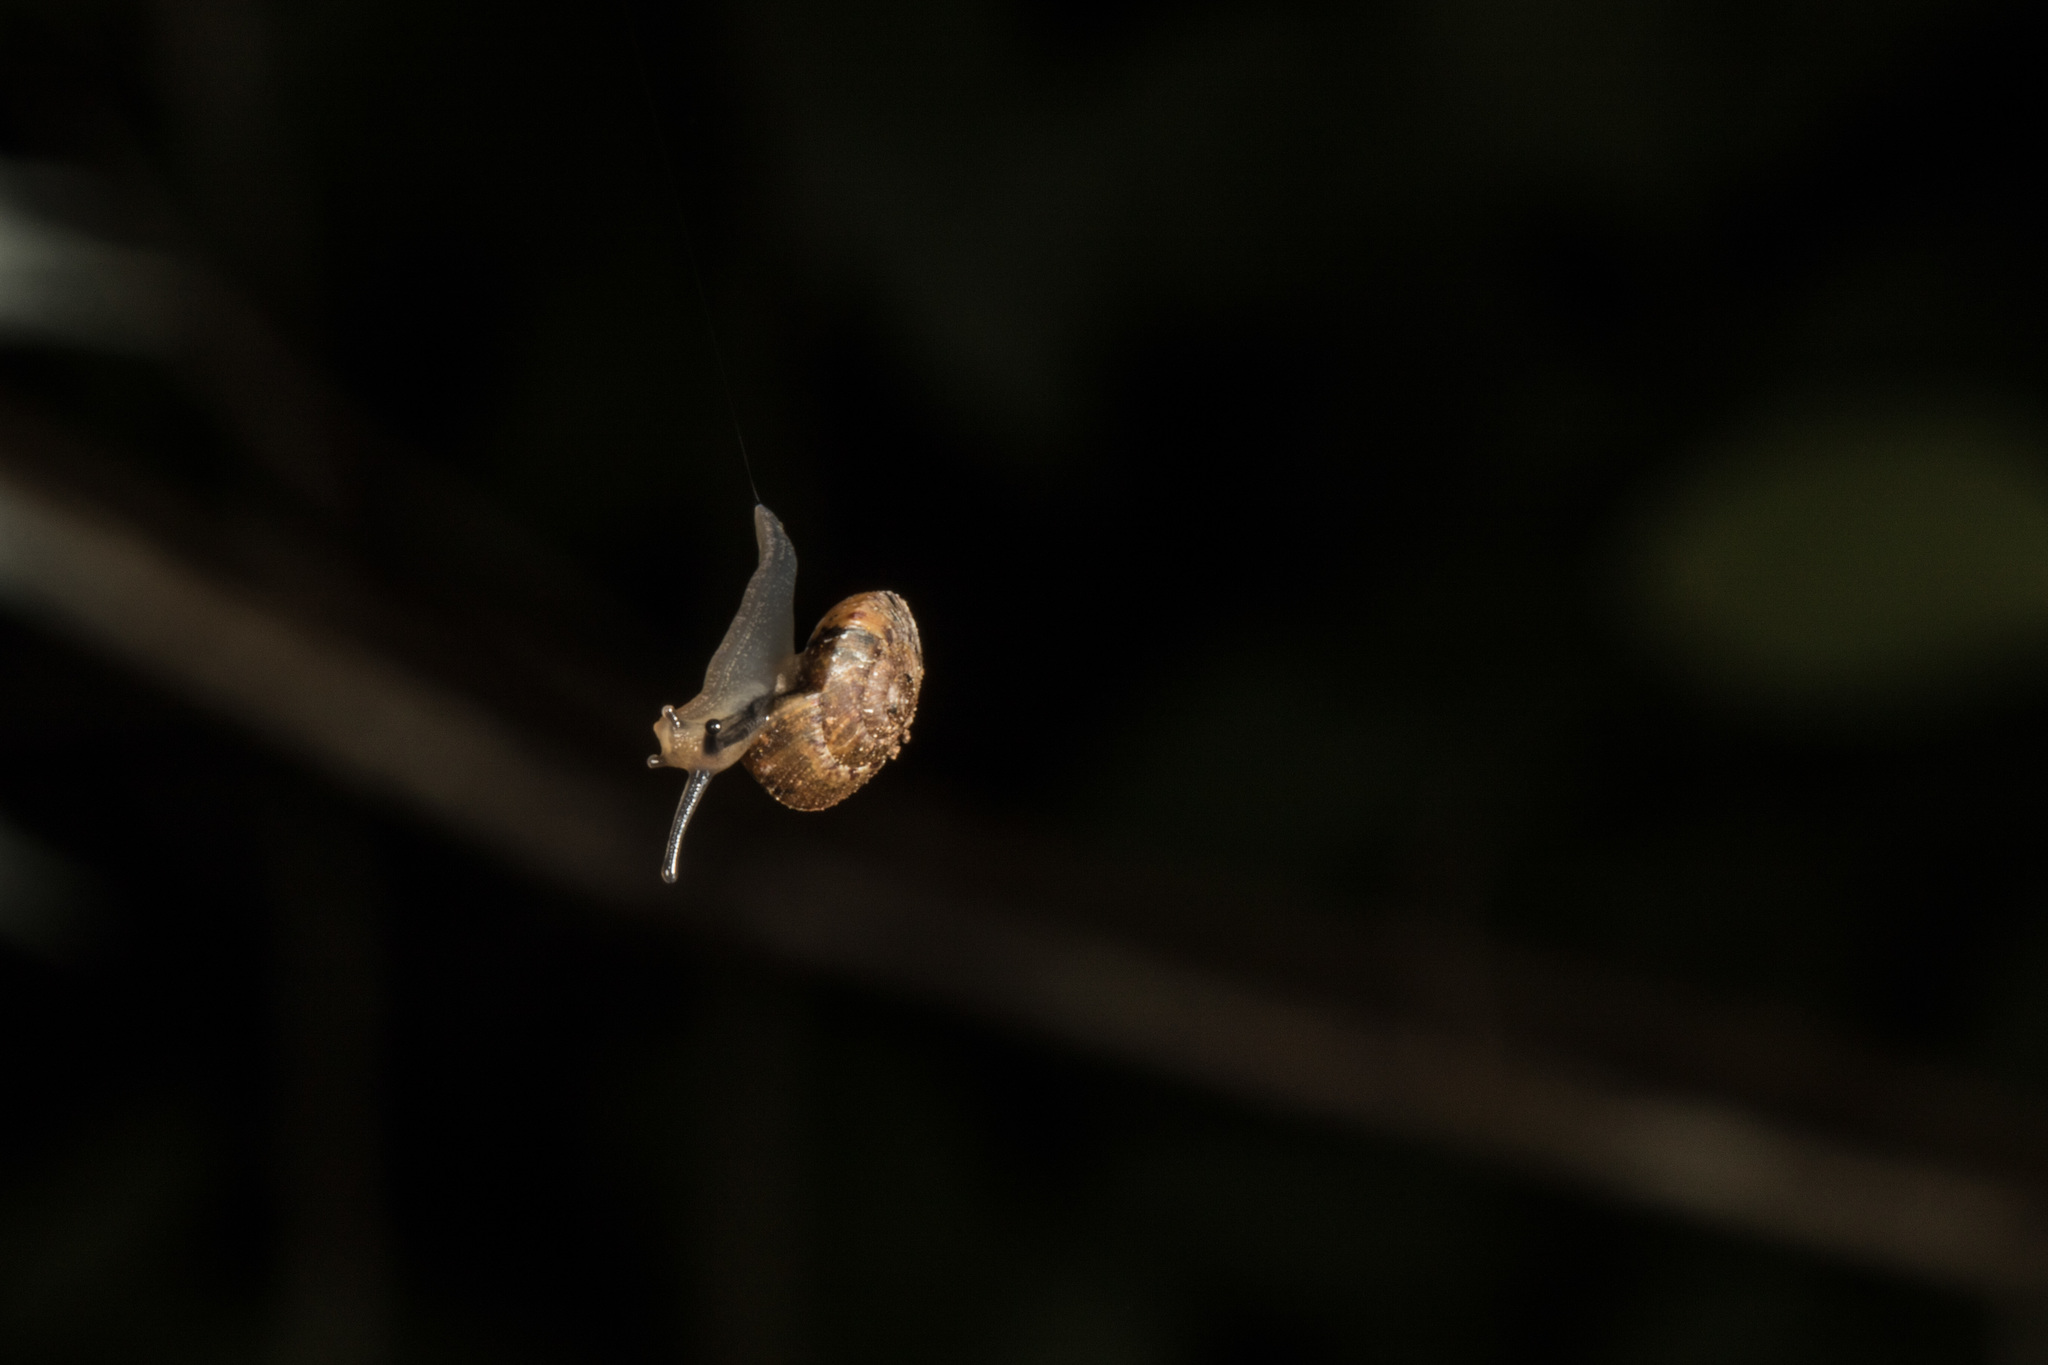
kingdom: Animalia
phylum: Mollusca
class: Gastropoda
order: Stylommatophora
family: Charopidae
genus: Thalassohelix
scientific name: Thalassohelix zelandiae
